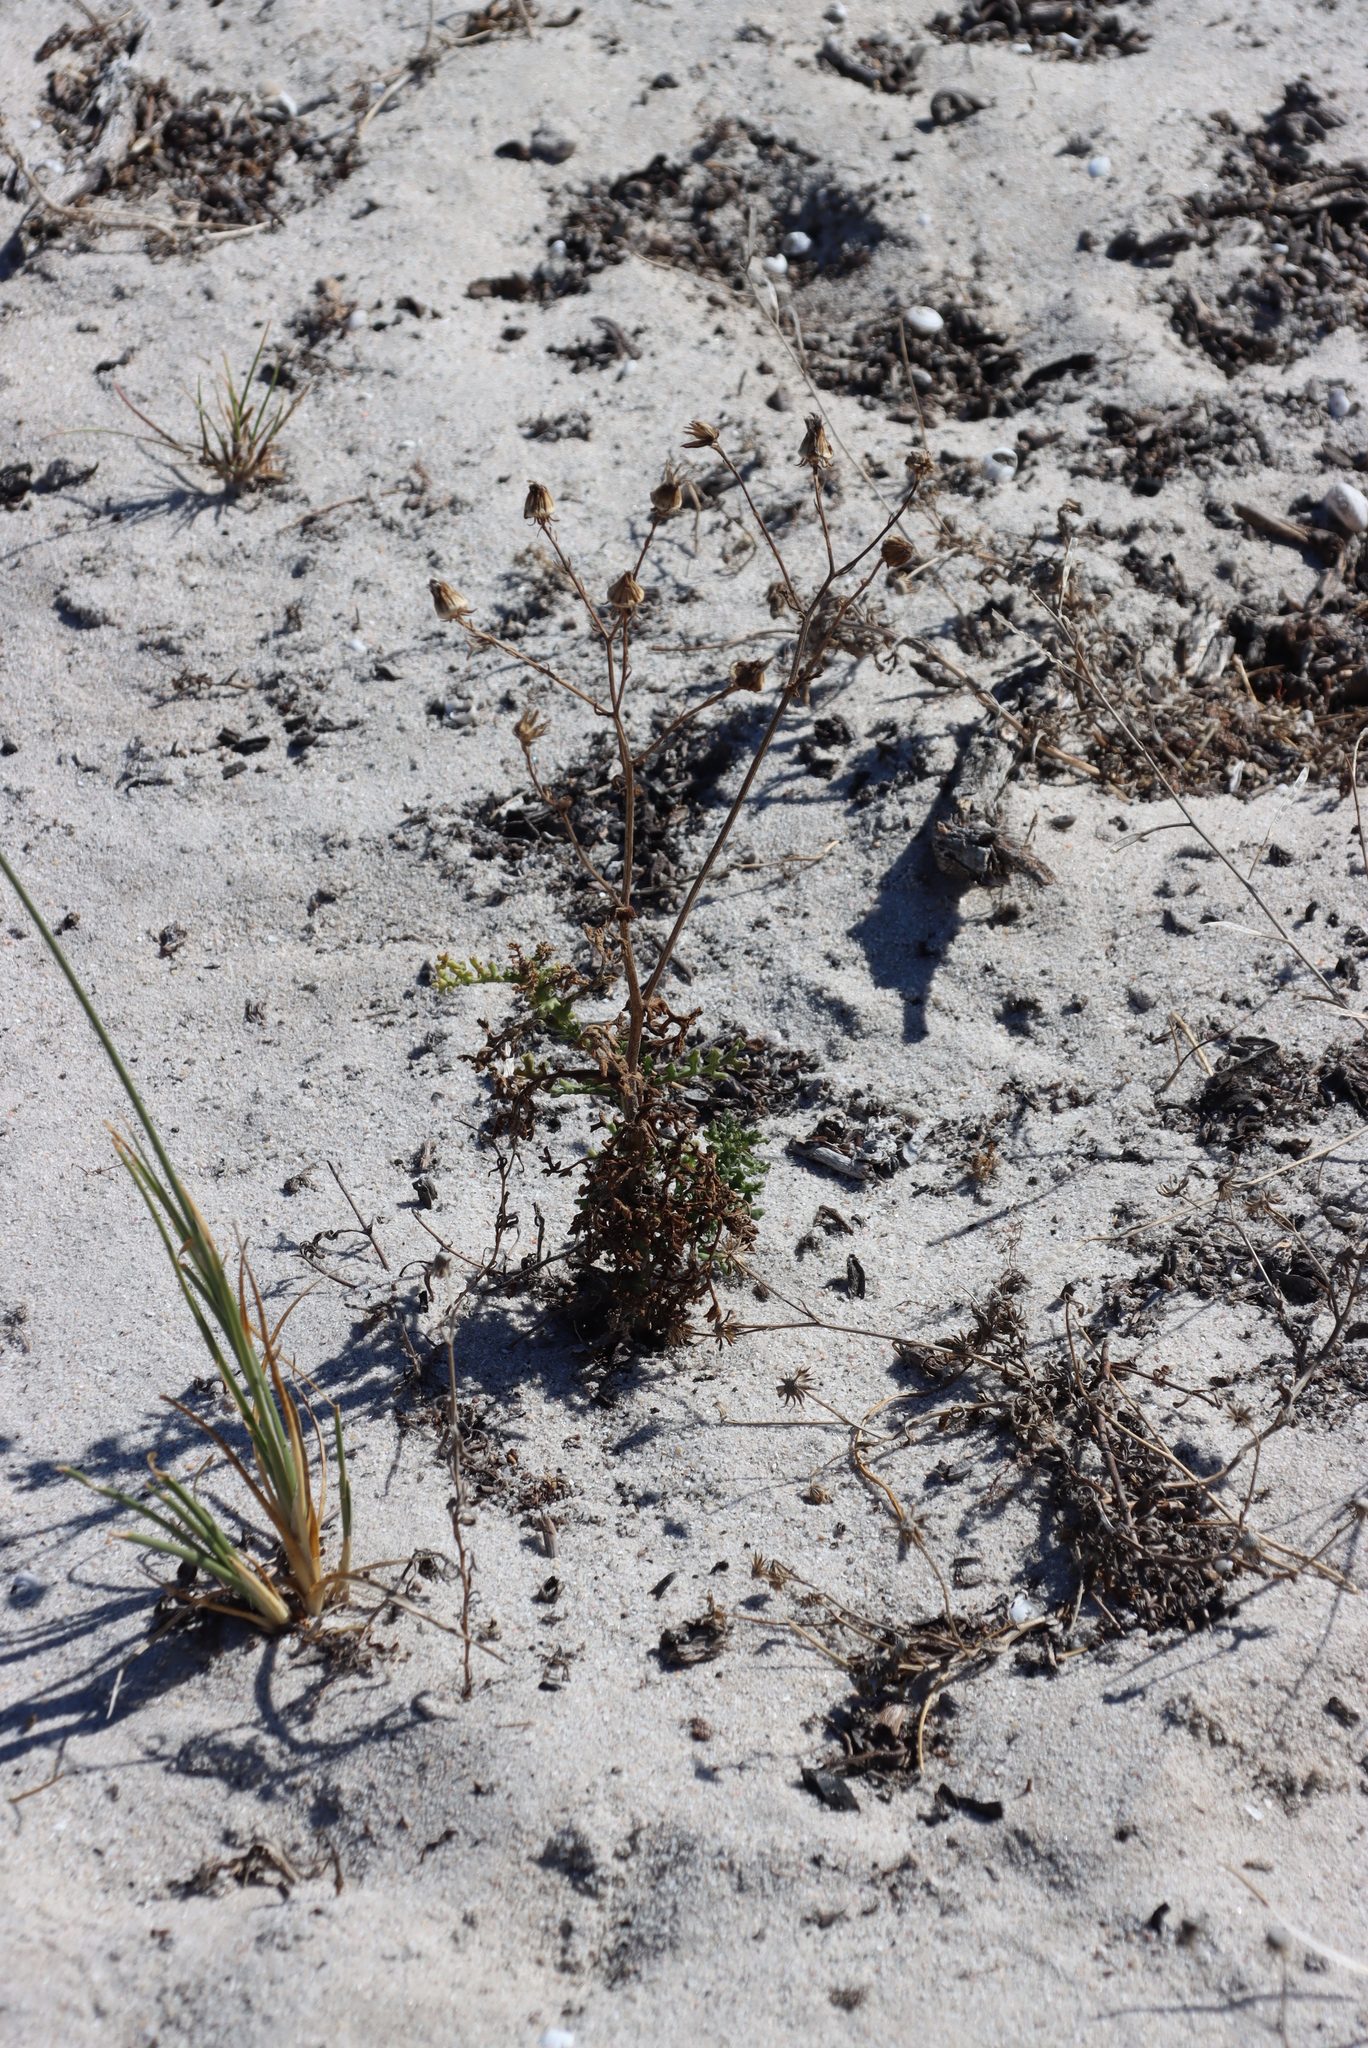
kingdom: Plantae
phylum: Tracheophyta
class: Magnoliopsida
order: Asterales
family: Asteraceae
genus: Senecio
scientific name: Senecio elegans
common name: Purple groundsel
